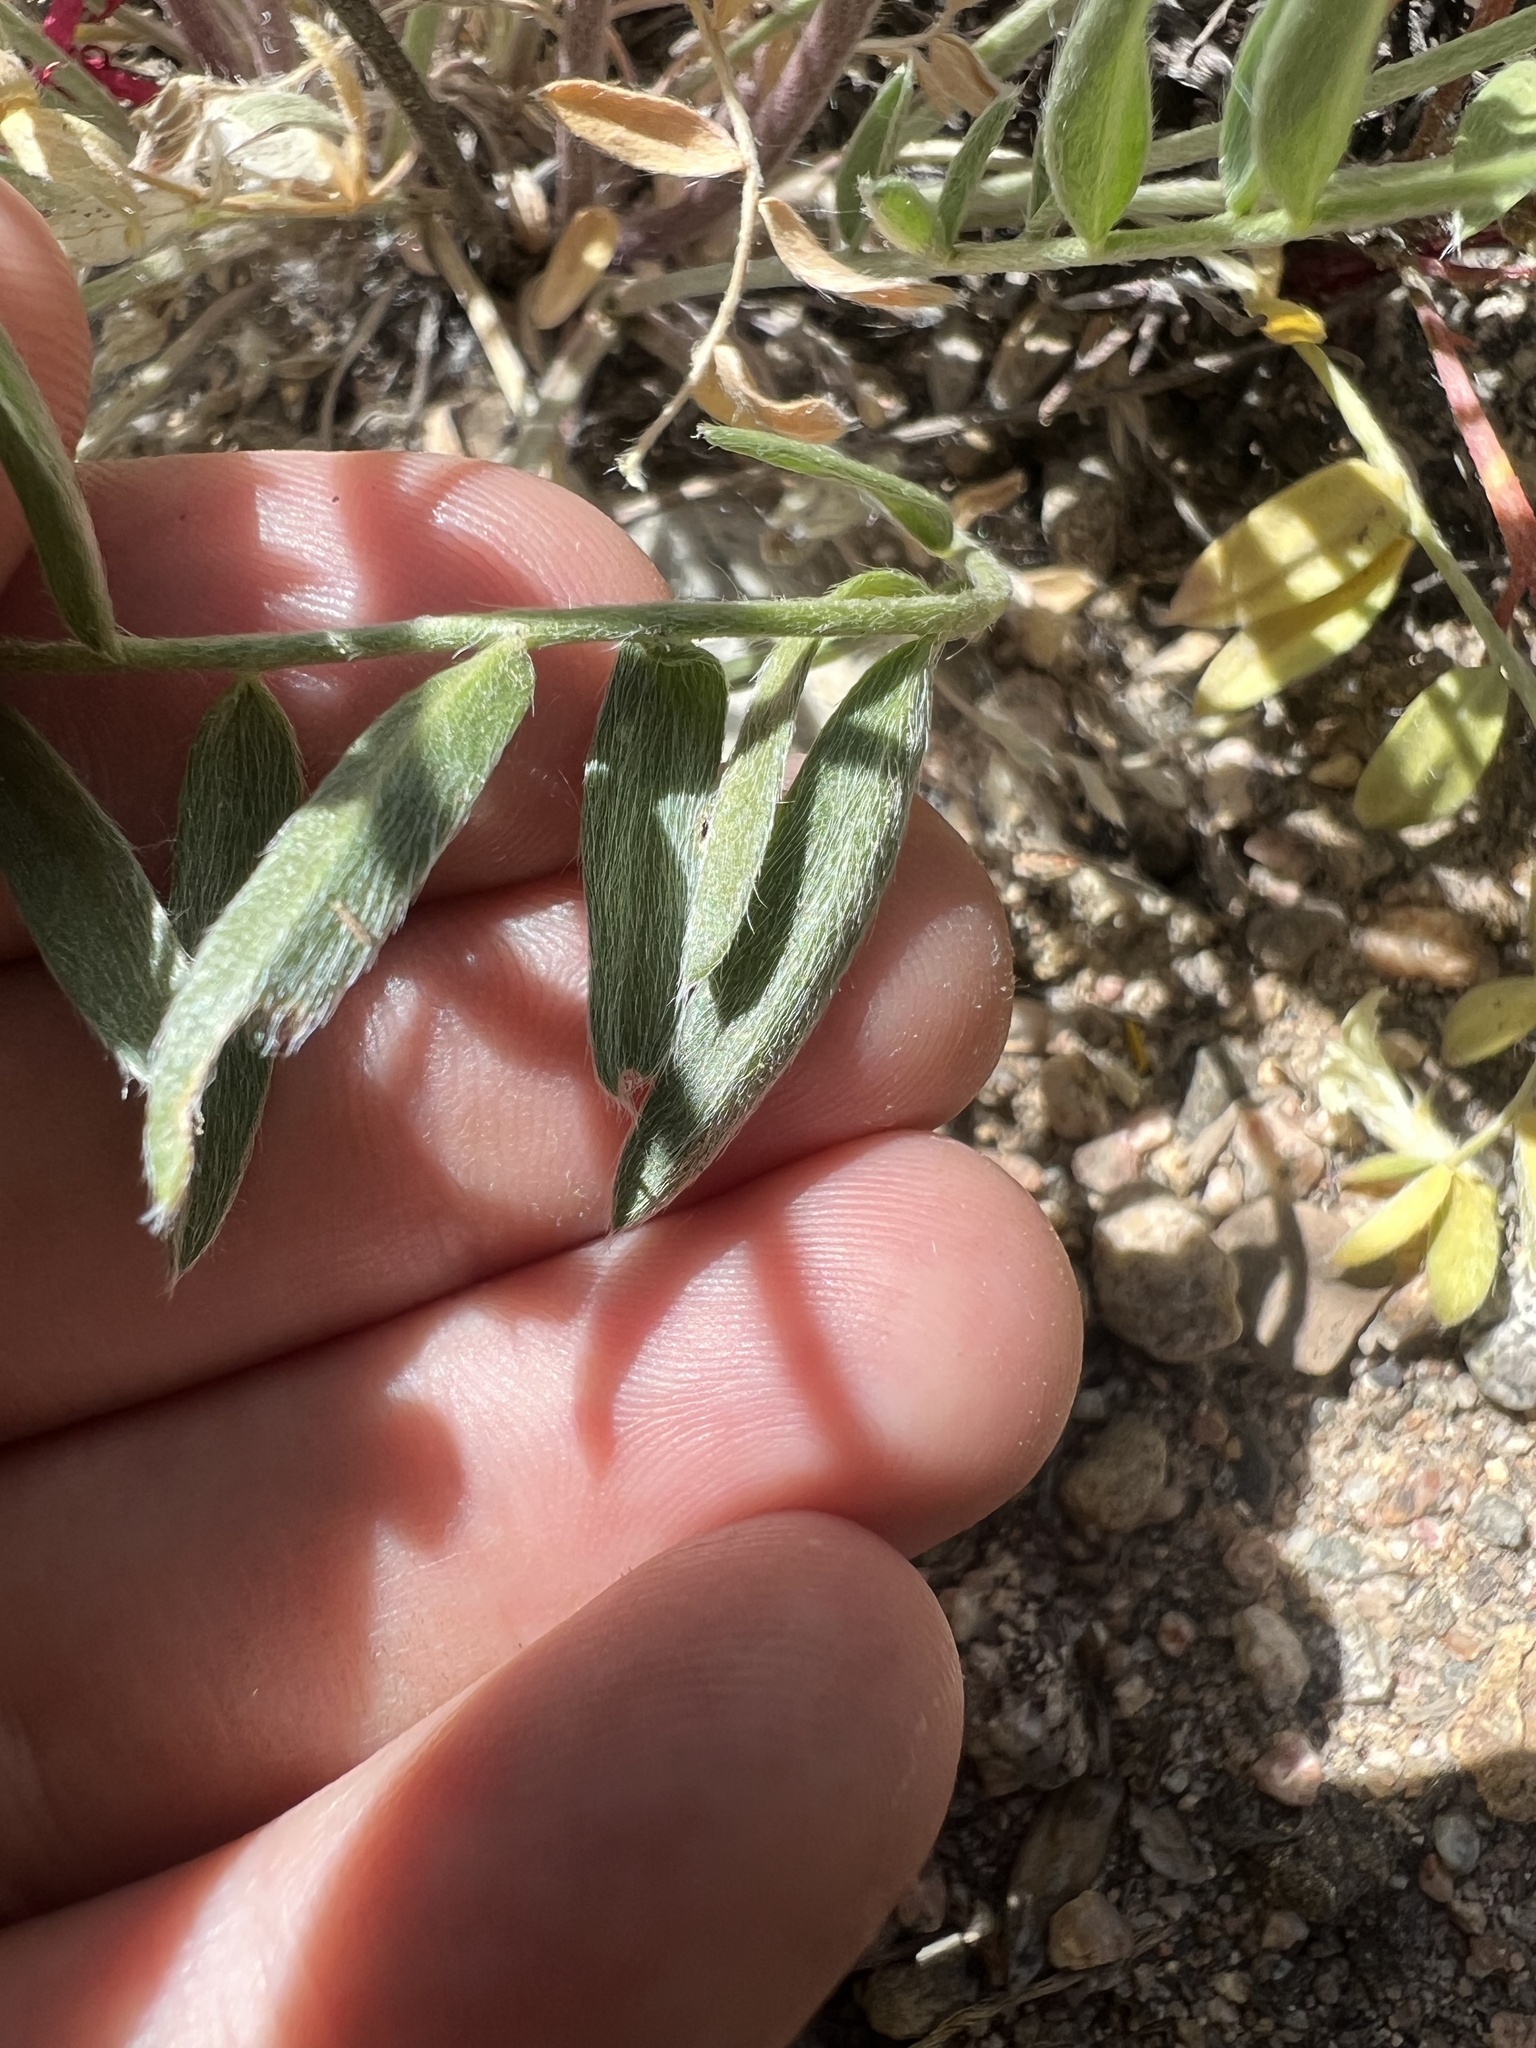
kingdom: Plantae
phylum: Tracheophyta
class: Magnoliopsida
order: Fabales
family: Fabaceae
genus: Oxytropis
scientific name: Oxytropis sericea
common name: Silky locoweed
